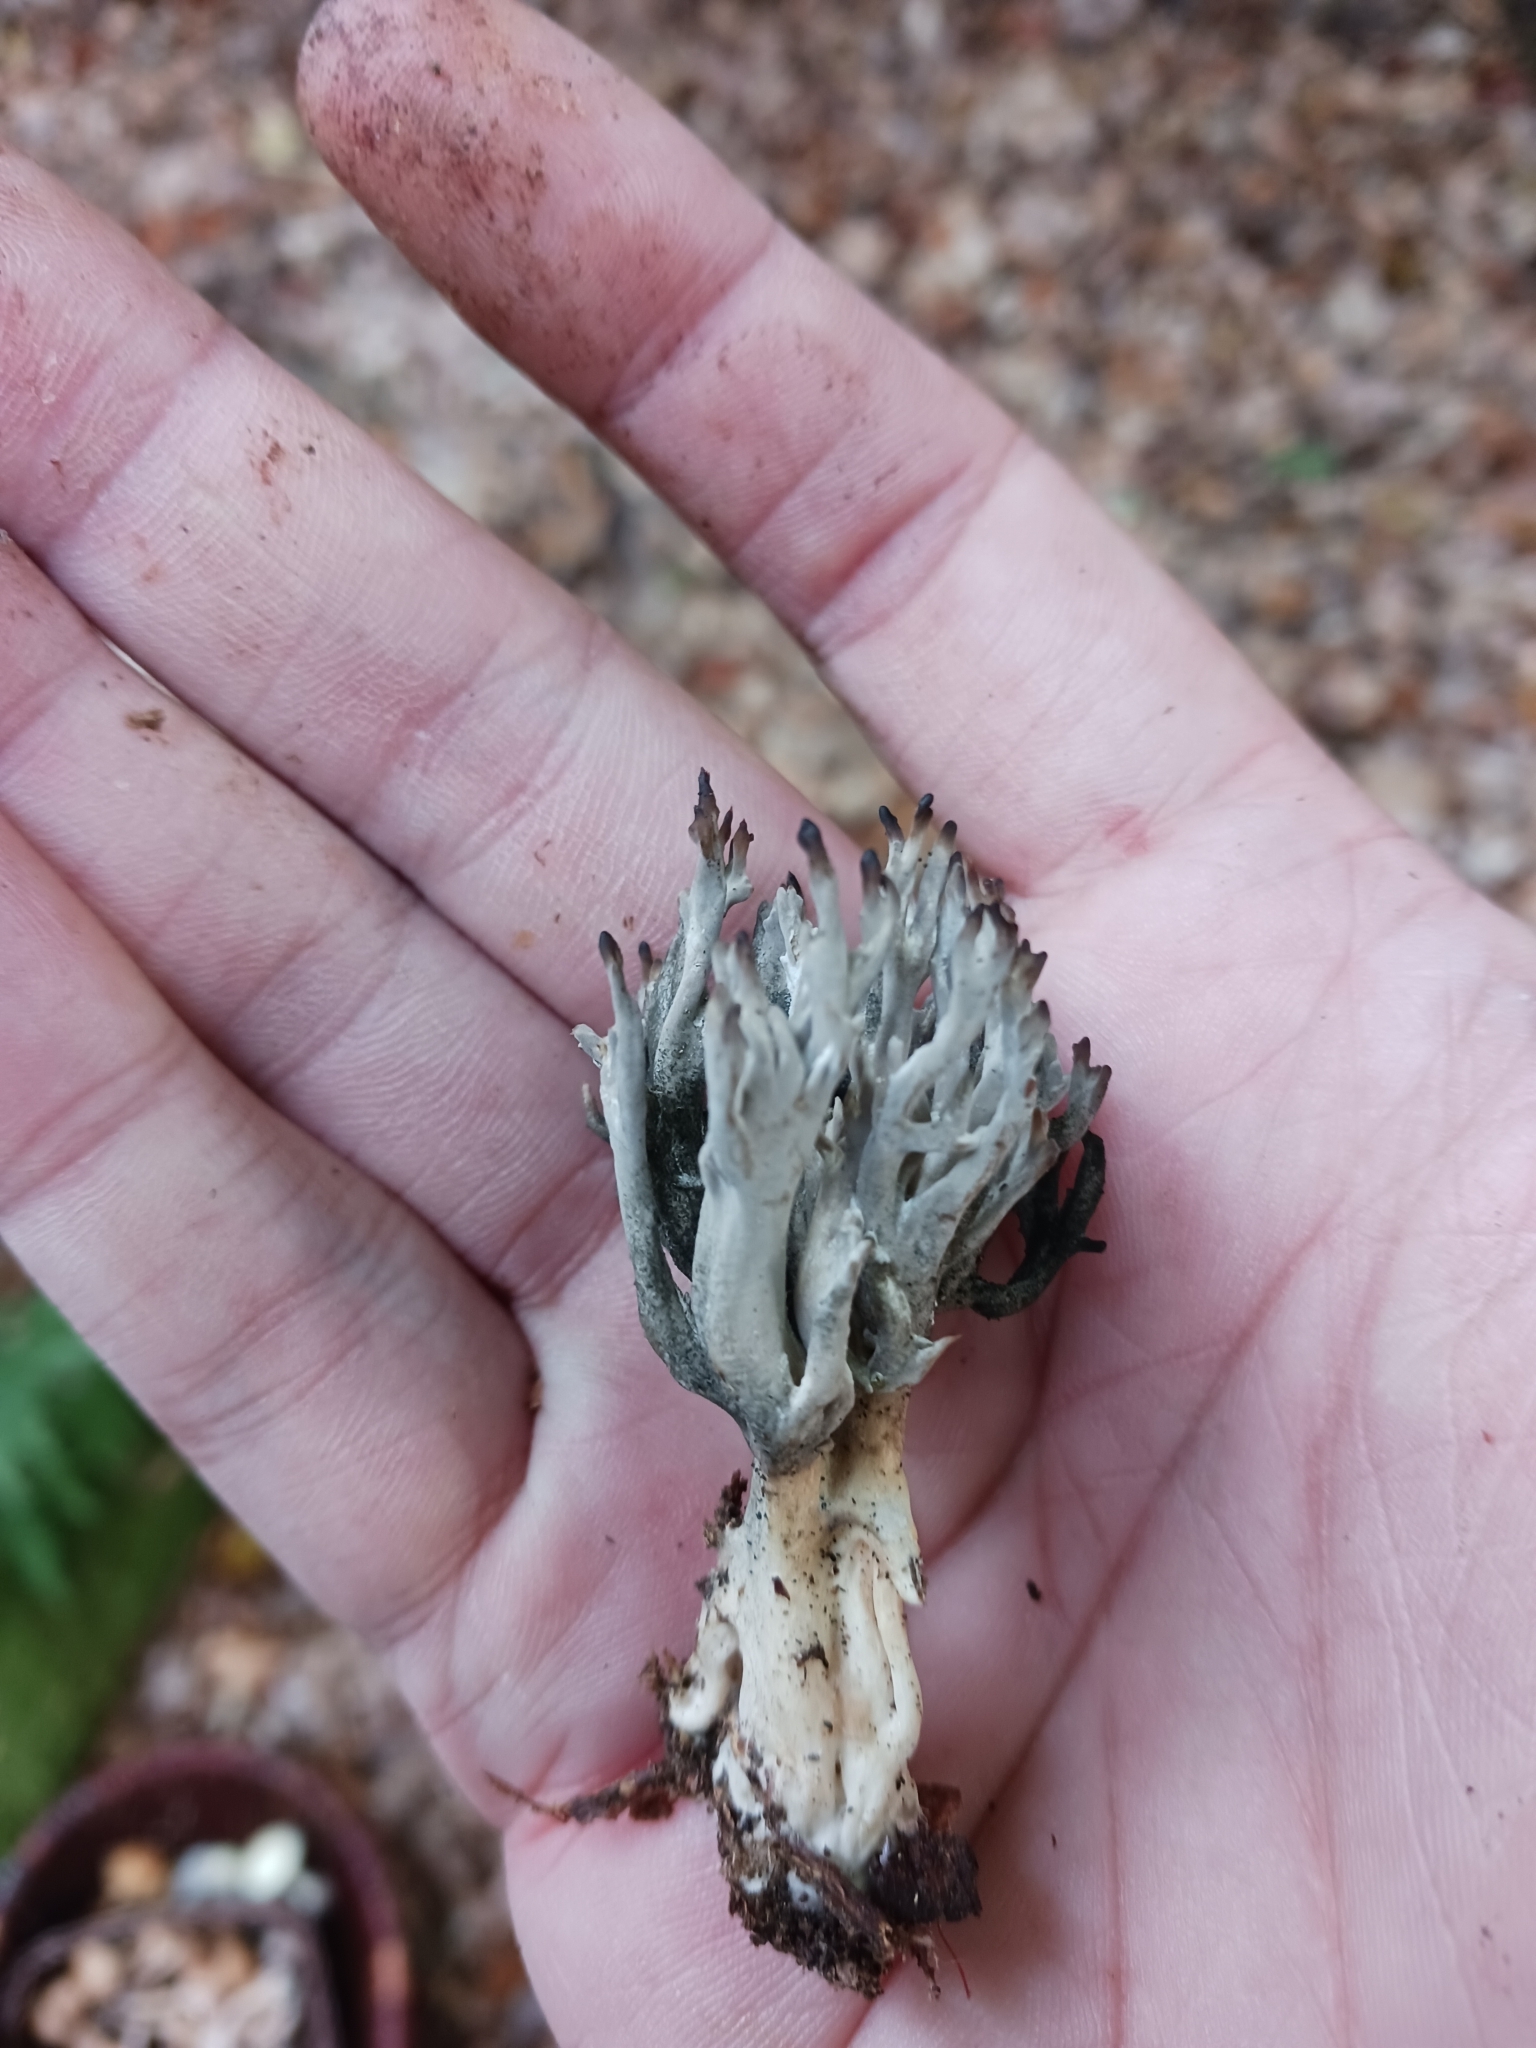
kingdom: Fungi
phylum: Ascomycota
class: Dothideomycetes
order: Pleosporales
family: Massarinaceae
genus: Helminthosporium
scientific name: Helminthosporium
